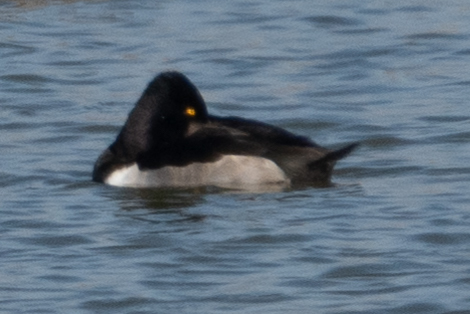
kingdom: Animalia
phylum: Chordata
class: Aves
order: Anseriformes
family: Anatidae
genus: Aythya
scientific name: Aythya collaris
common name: Ring-necked duck
